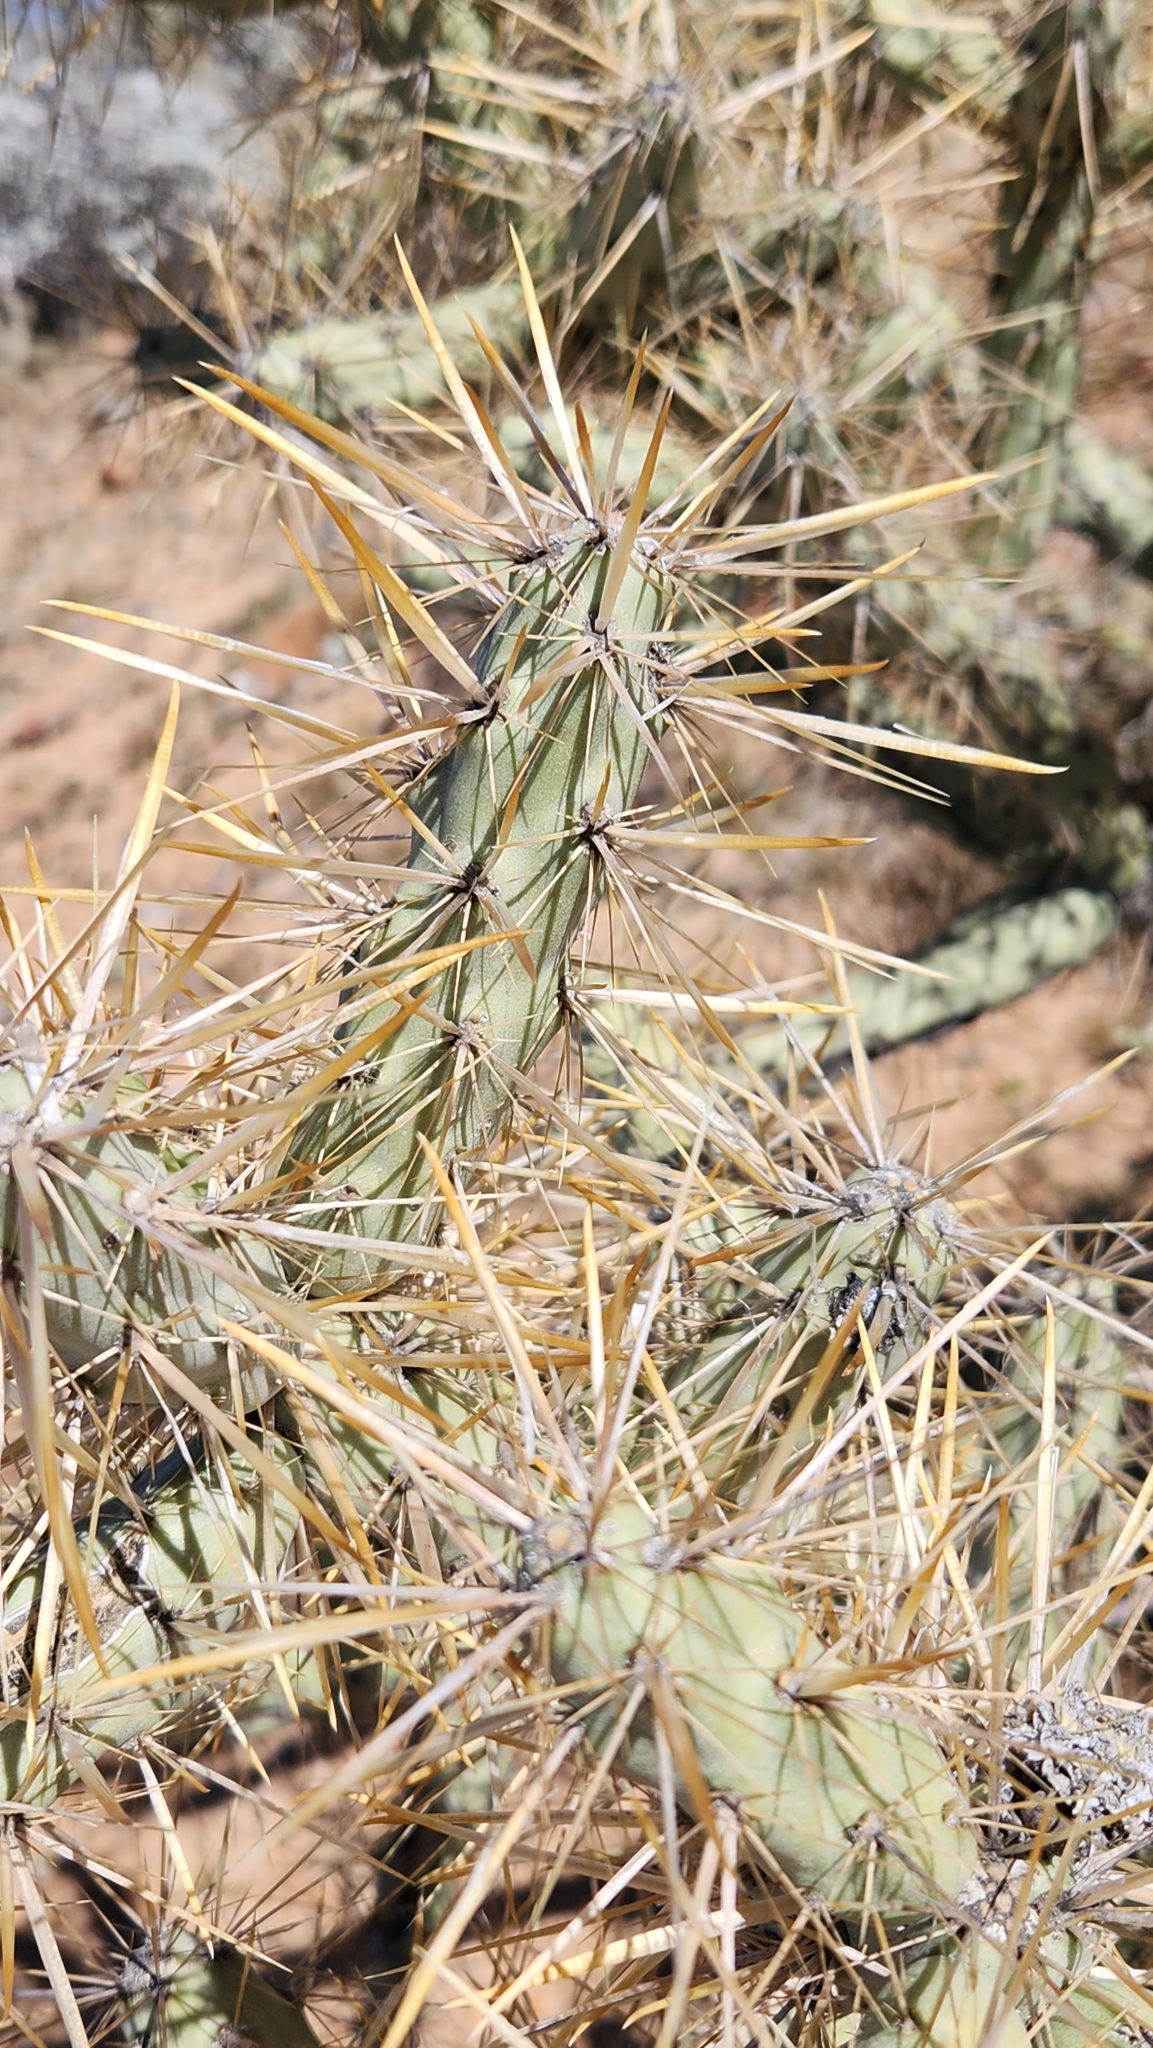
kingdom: Plantae
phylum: Tracheophyta
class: Magnoliopsida
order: Caryophyllales
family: Cactaceae
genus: Cylindropuntia
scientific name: Cylindropuntia molesta
